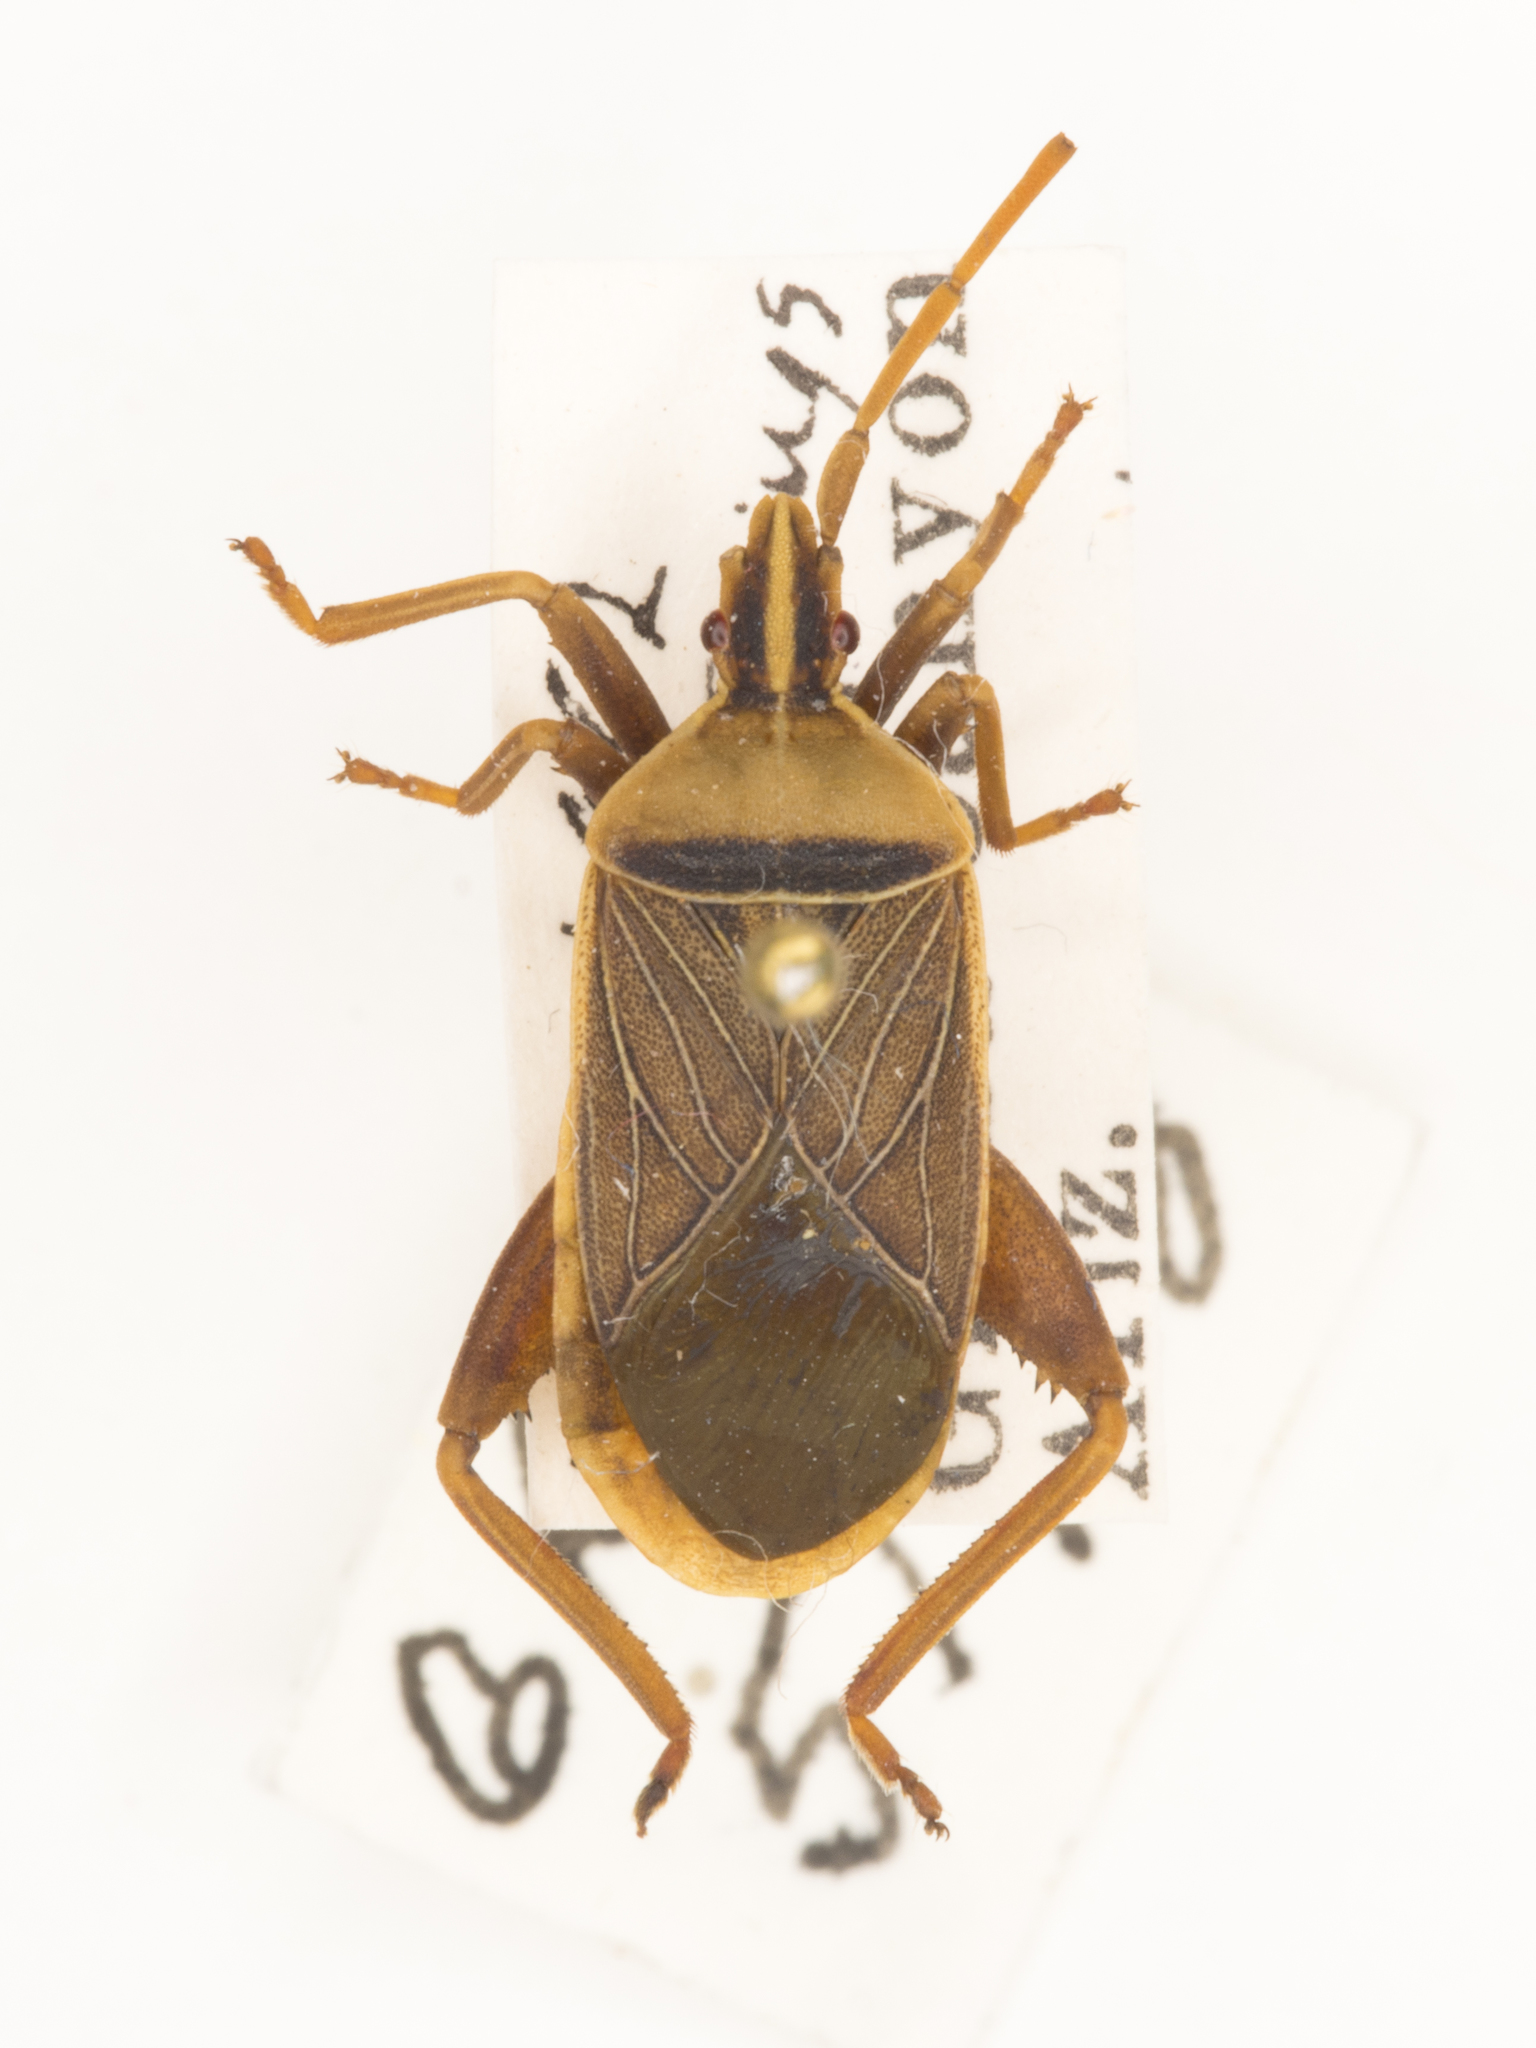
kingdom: Animalia
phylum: Arthropoda
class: Insecta
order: Hemiptera
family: Coreidae
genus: Chelinidea
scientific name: Chelinidea vittiger
